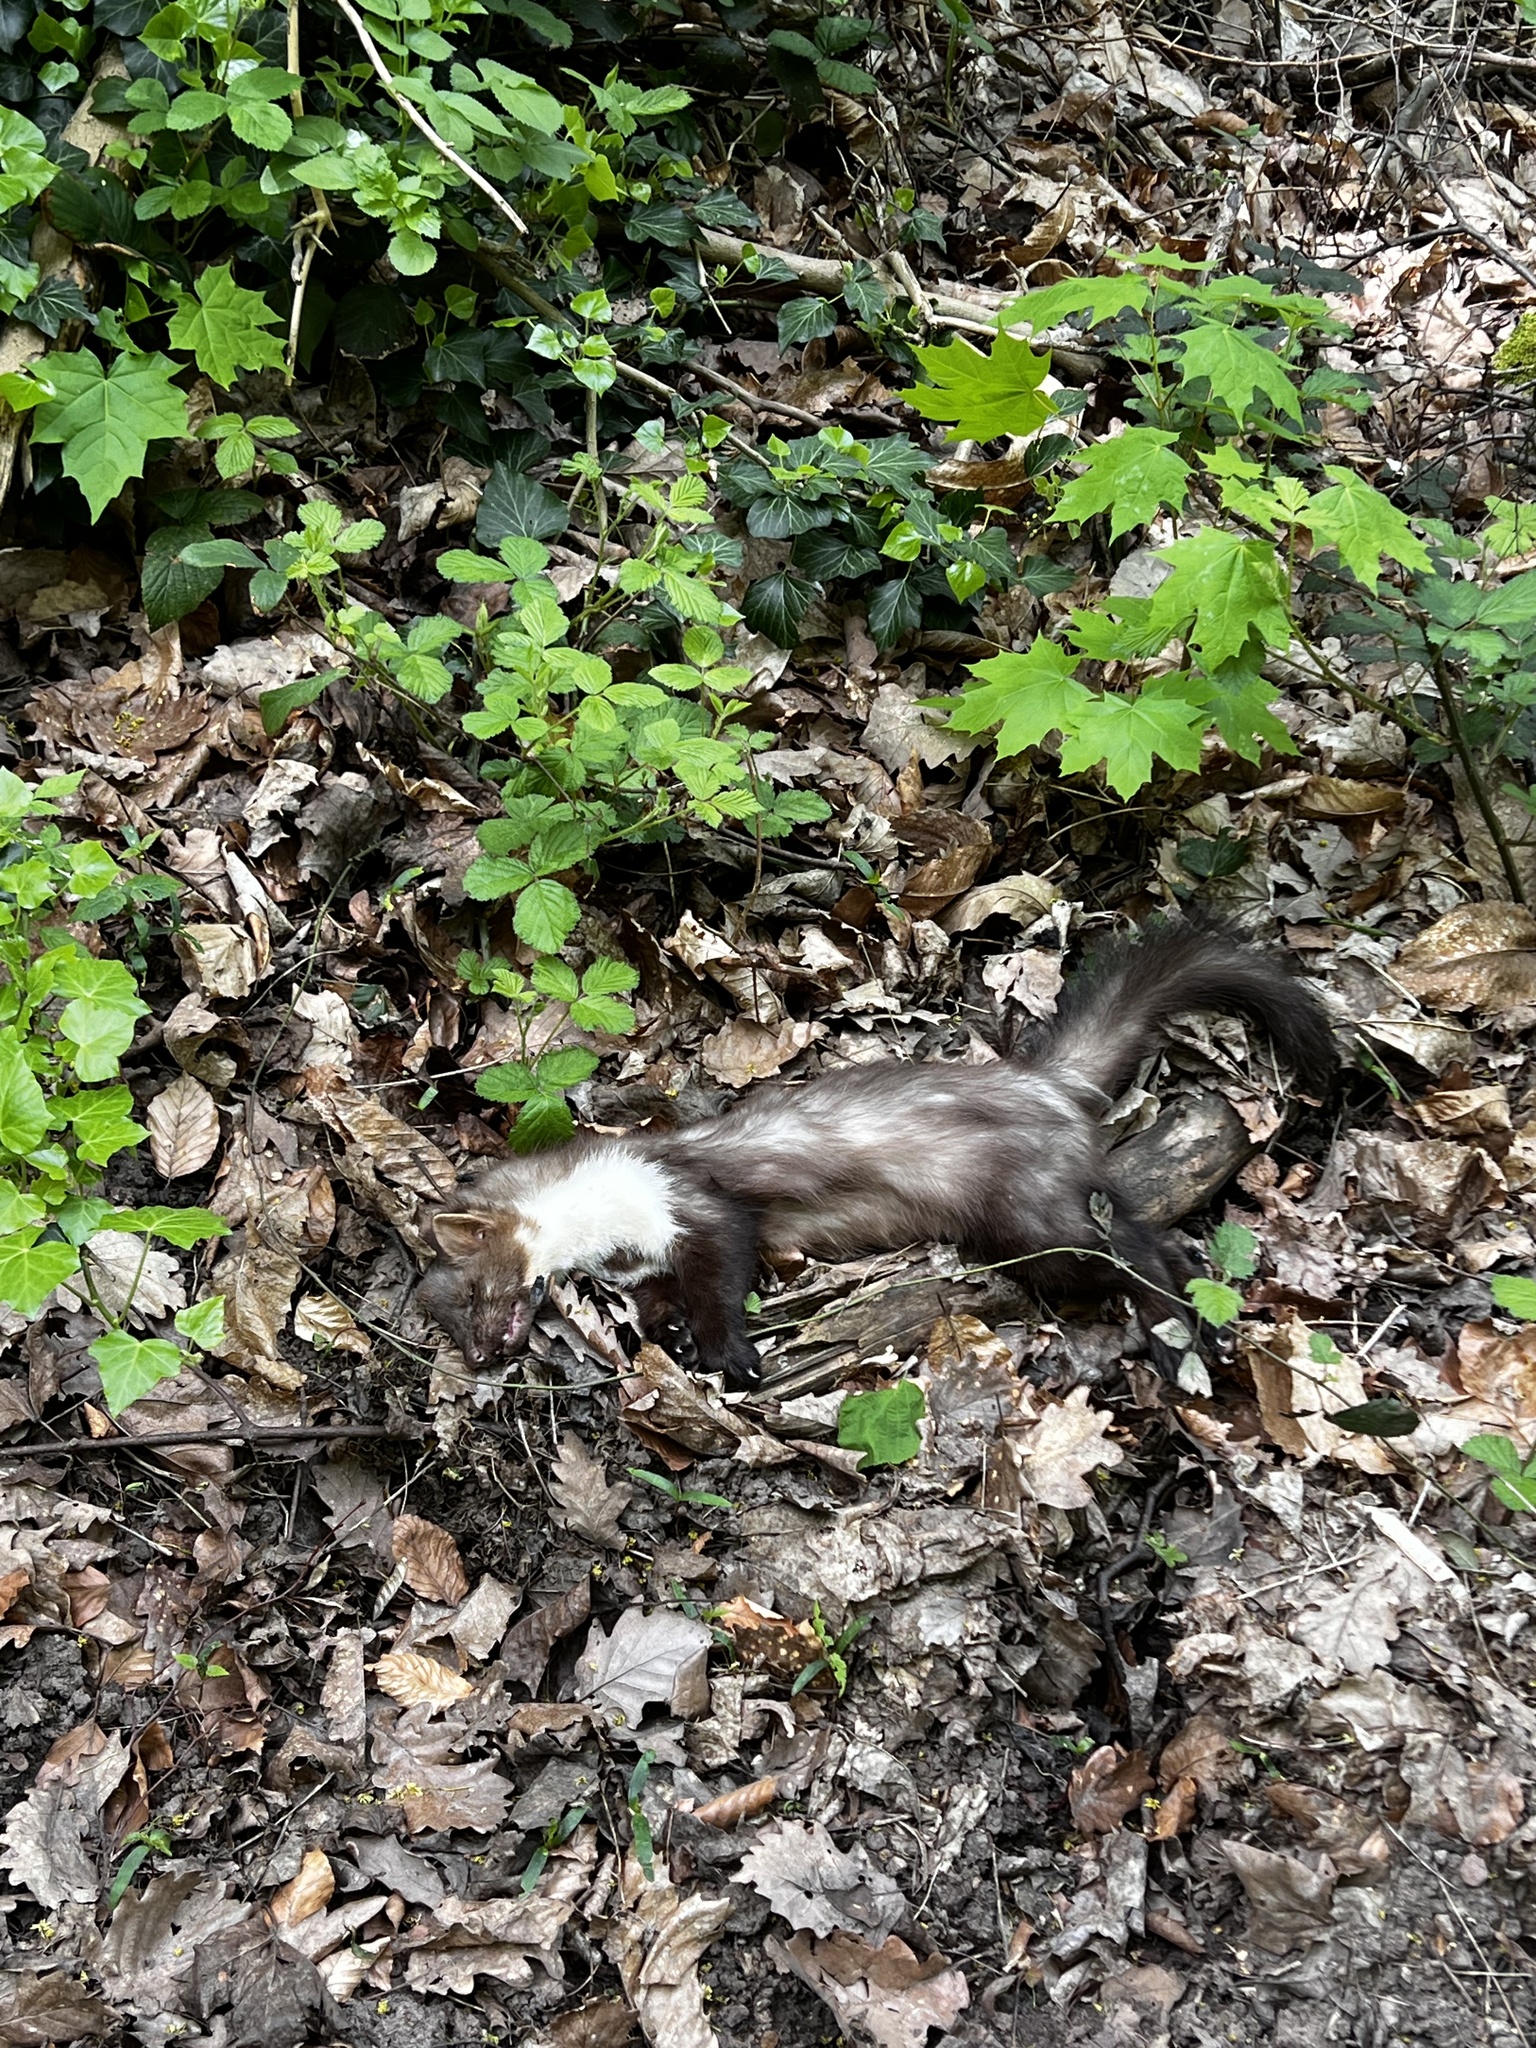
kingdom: Animalia
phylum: Chordata
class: Mammalia
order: Carnivora
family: Mustelidae
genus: Martes
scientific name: Martes foina
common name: Beech marten
